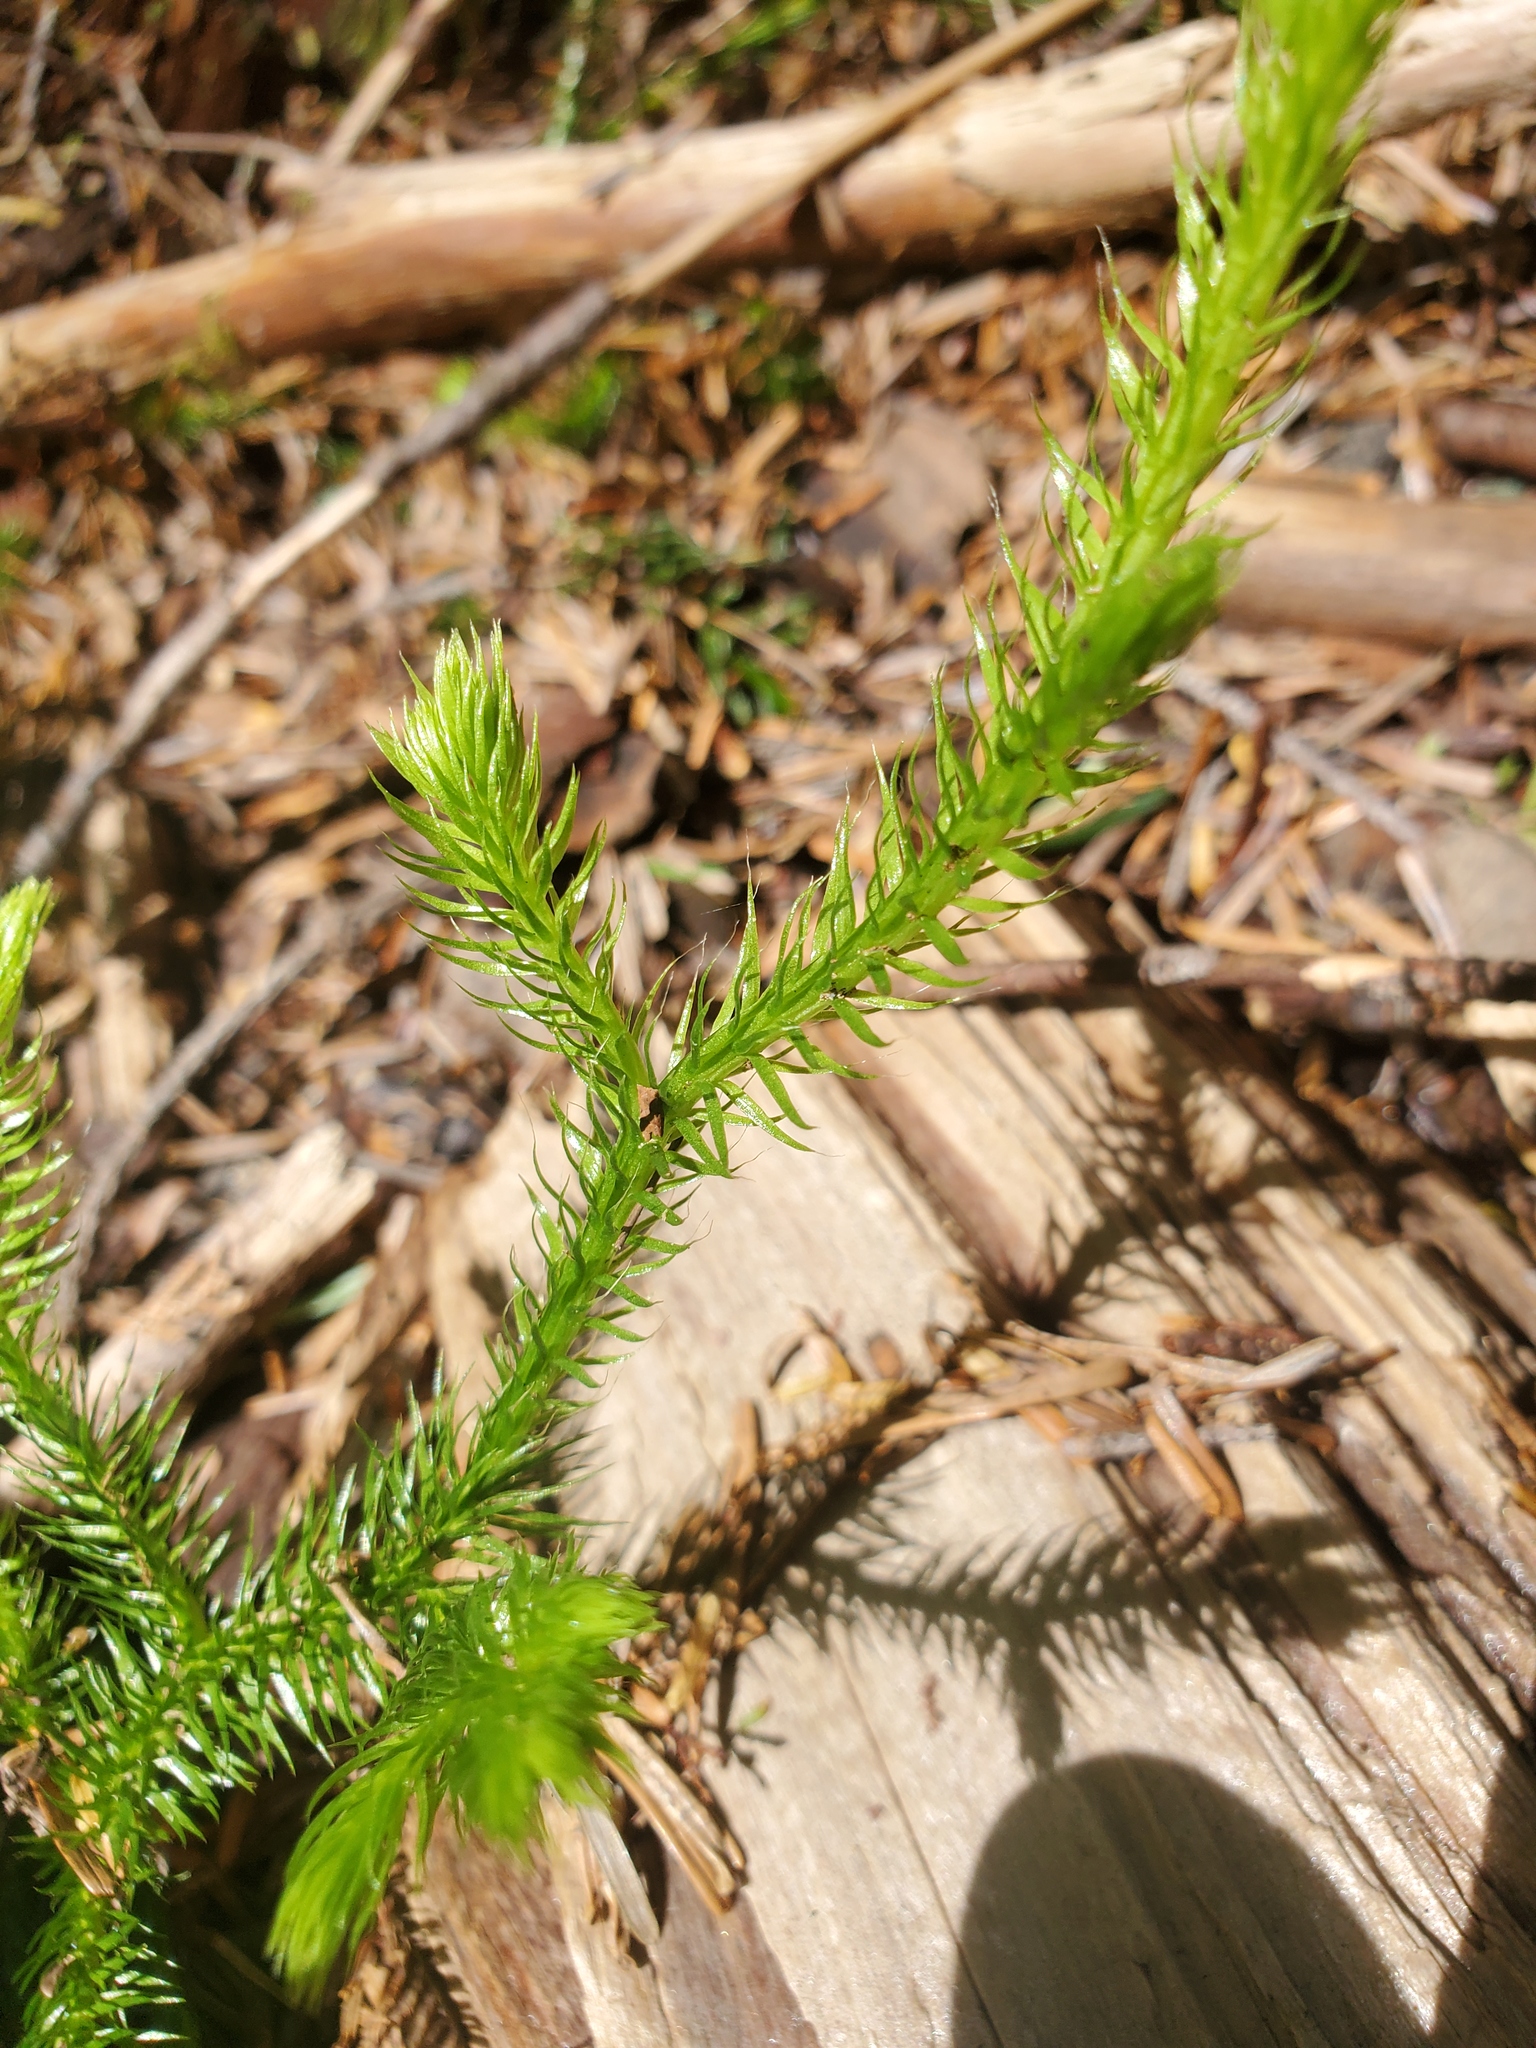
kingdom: Plantae
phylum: Tracheophyta
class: Lycopodiopsida
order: Lycopodiales
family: Lycopodiaceae
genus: Lycopodium
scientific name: Lycopodium clavatum
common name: Stag's-horn clubmoss
